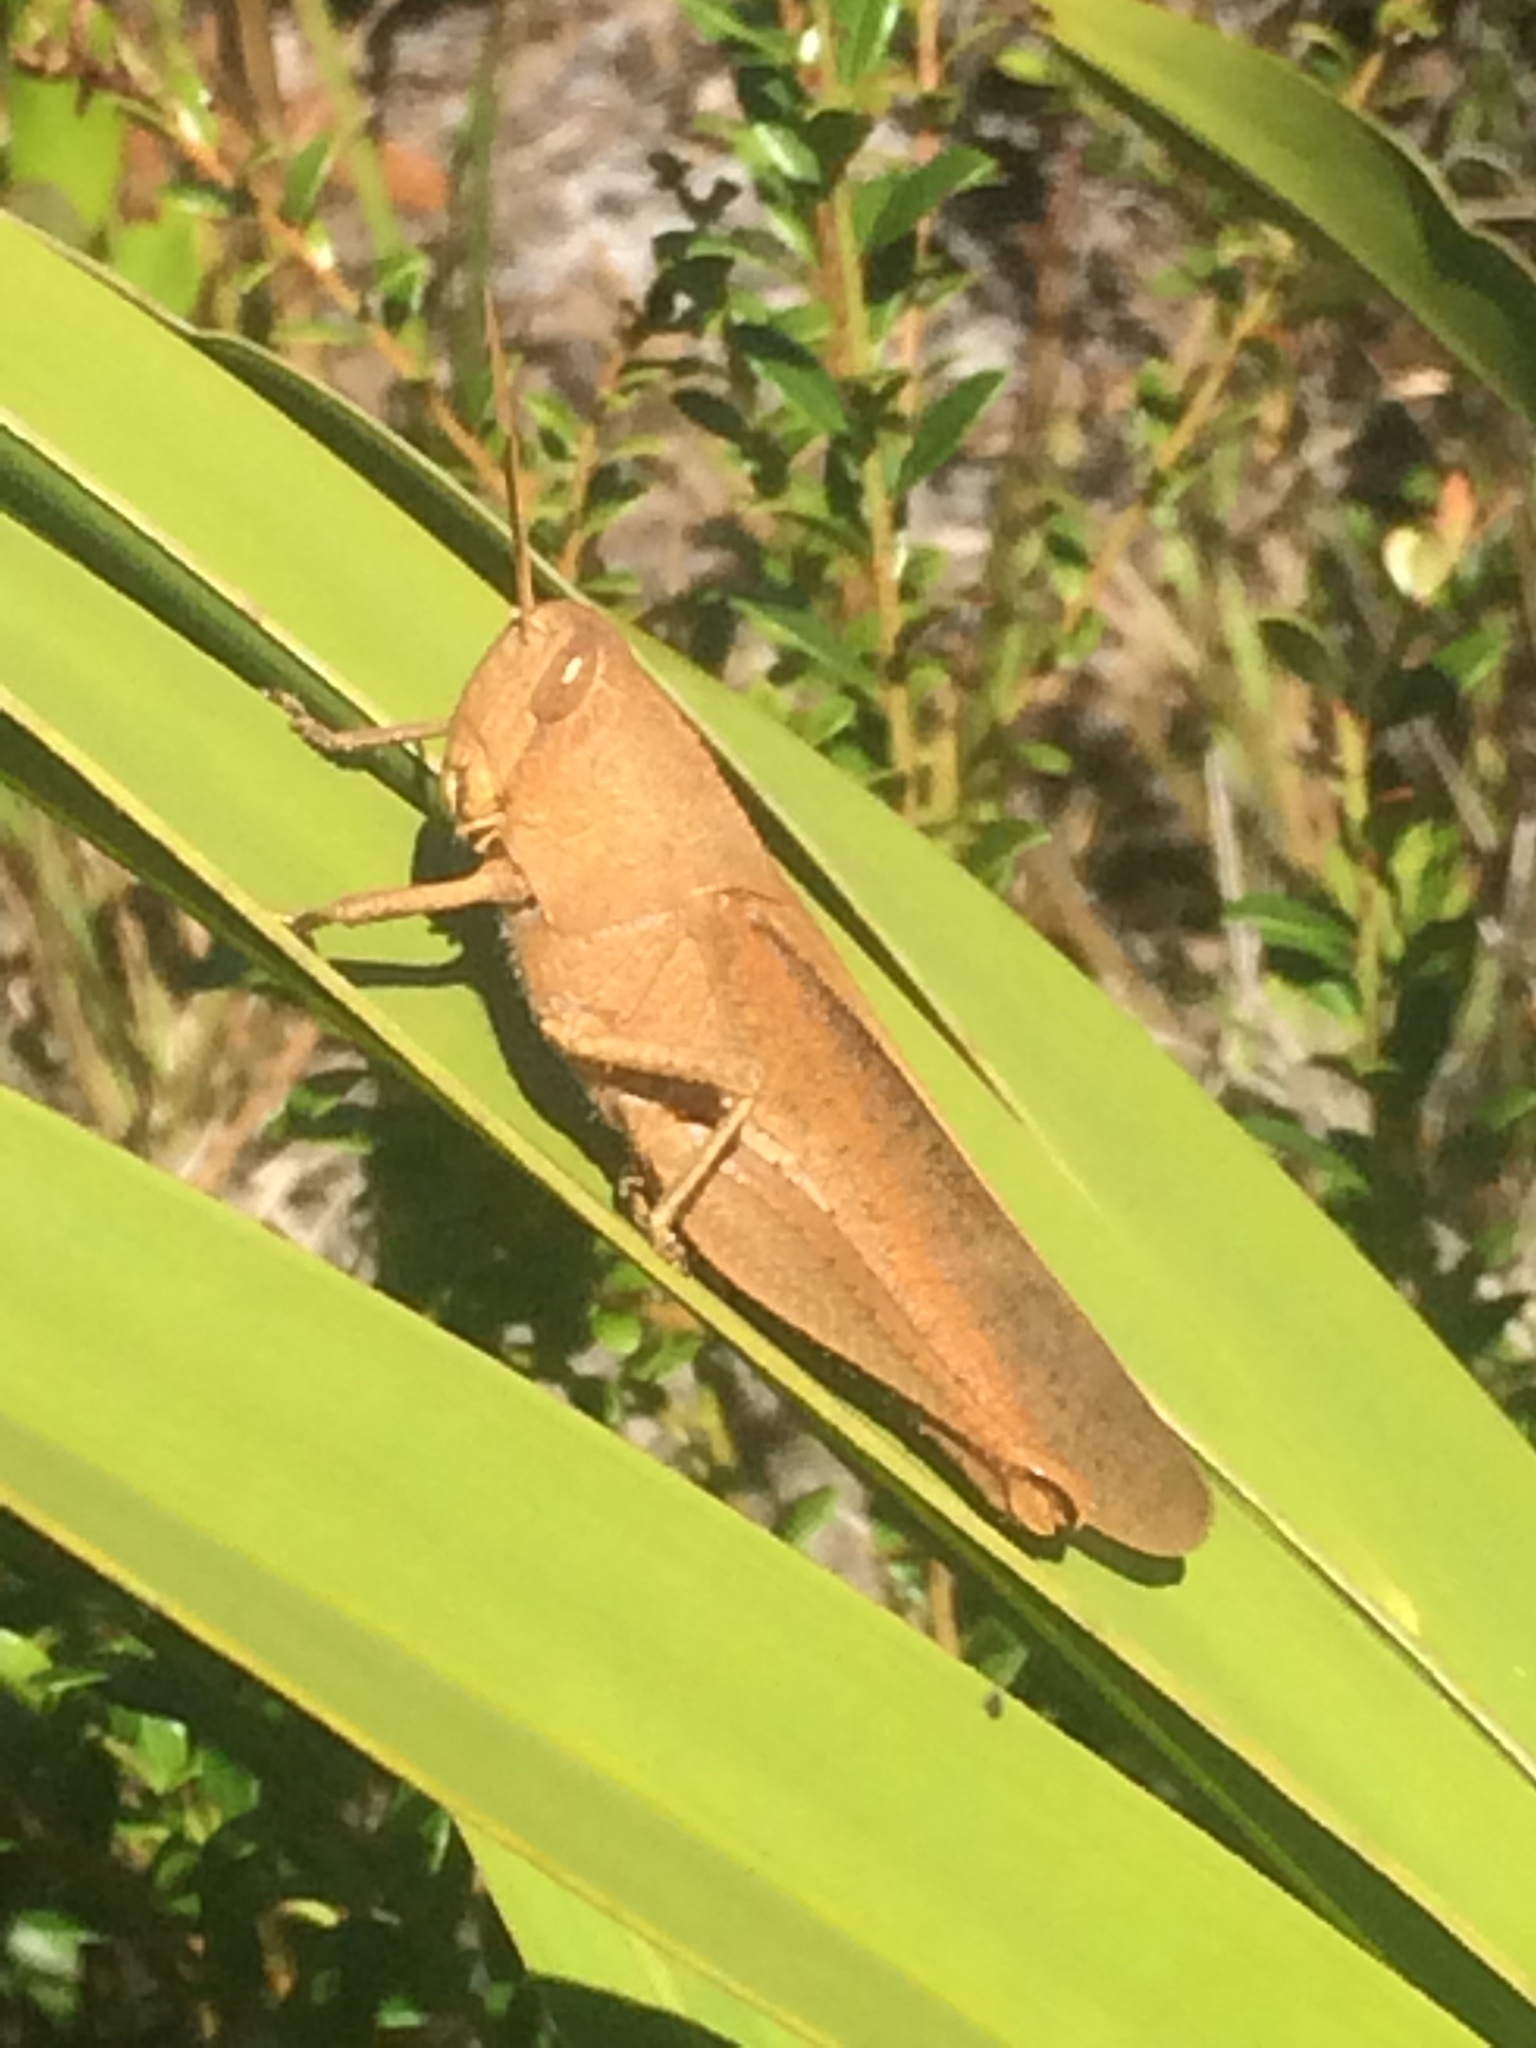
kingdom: Animalia
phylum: Arthropoda
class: Insecta
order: Orthoptera
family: Acrididae
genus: Schistocerca
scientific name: Schistocerca damnifica
